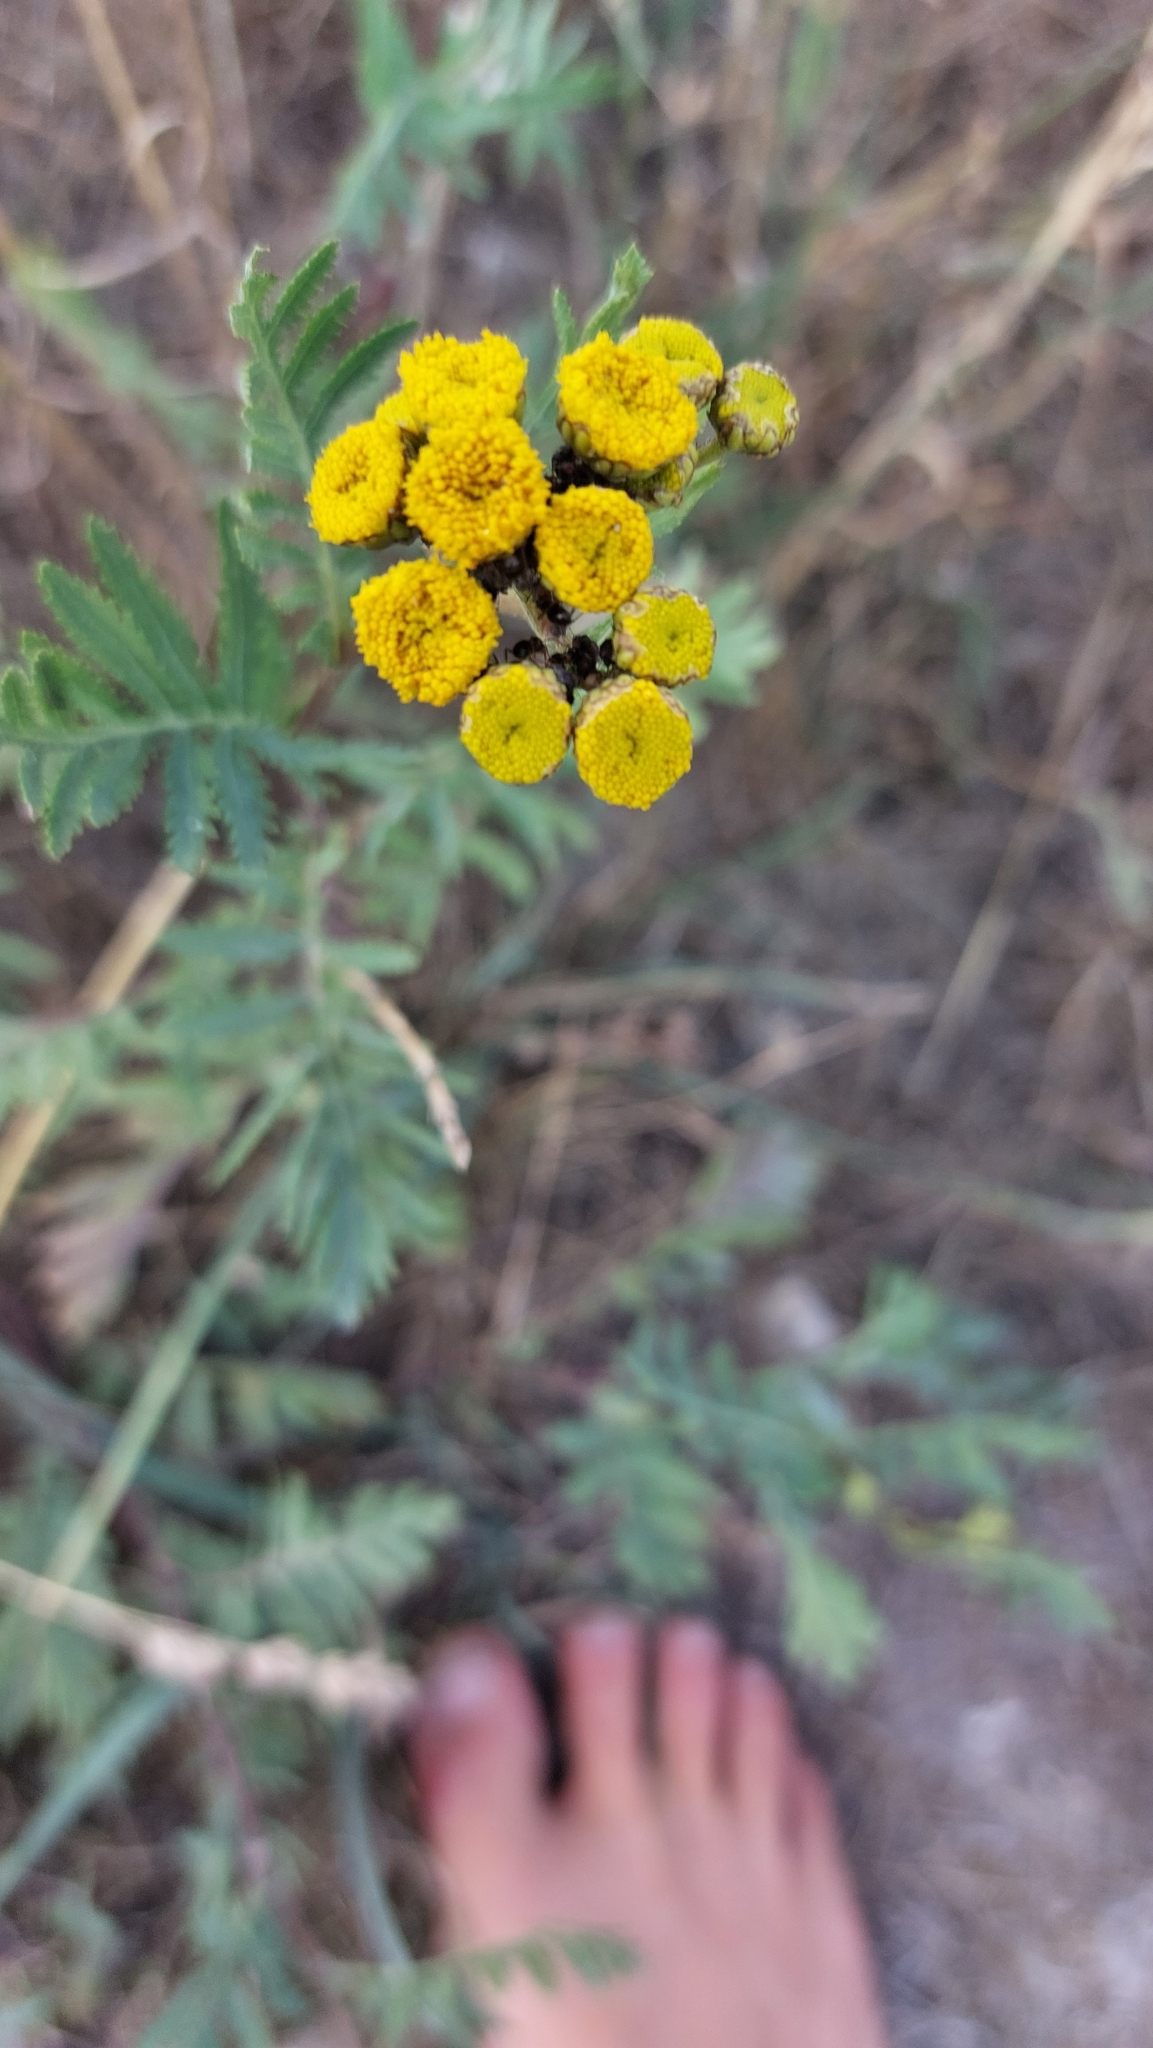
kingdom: Plantae
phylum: Tracheophyta
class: Magnoliopsida
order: Asterales
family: Asteraceae
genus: Tanacetum
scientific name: Tanacetum vulgare
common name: Common tansy
